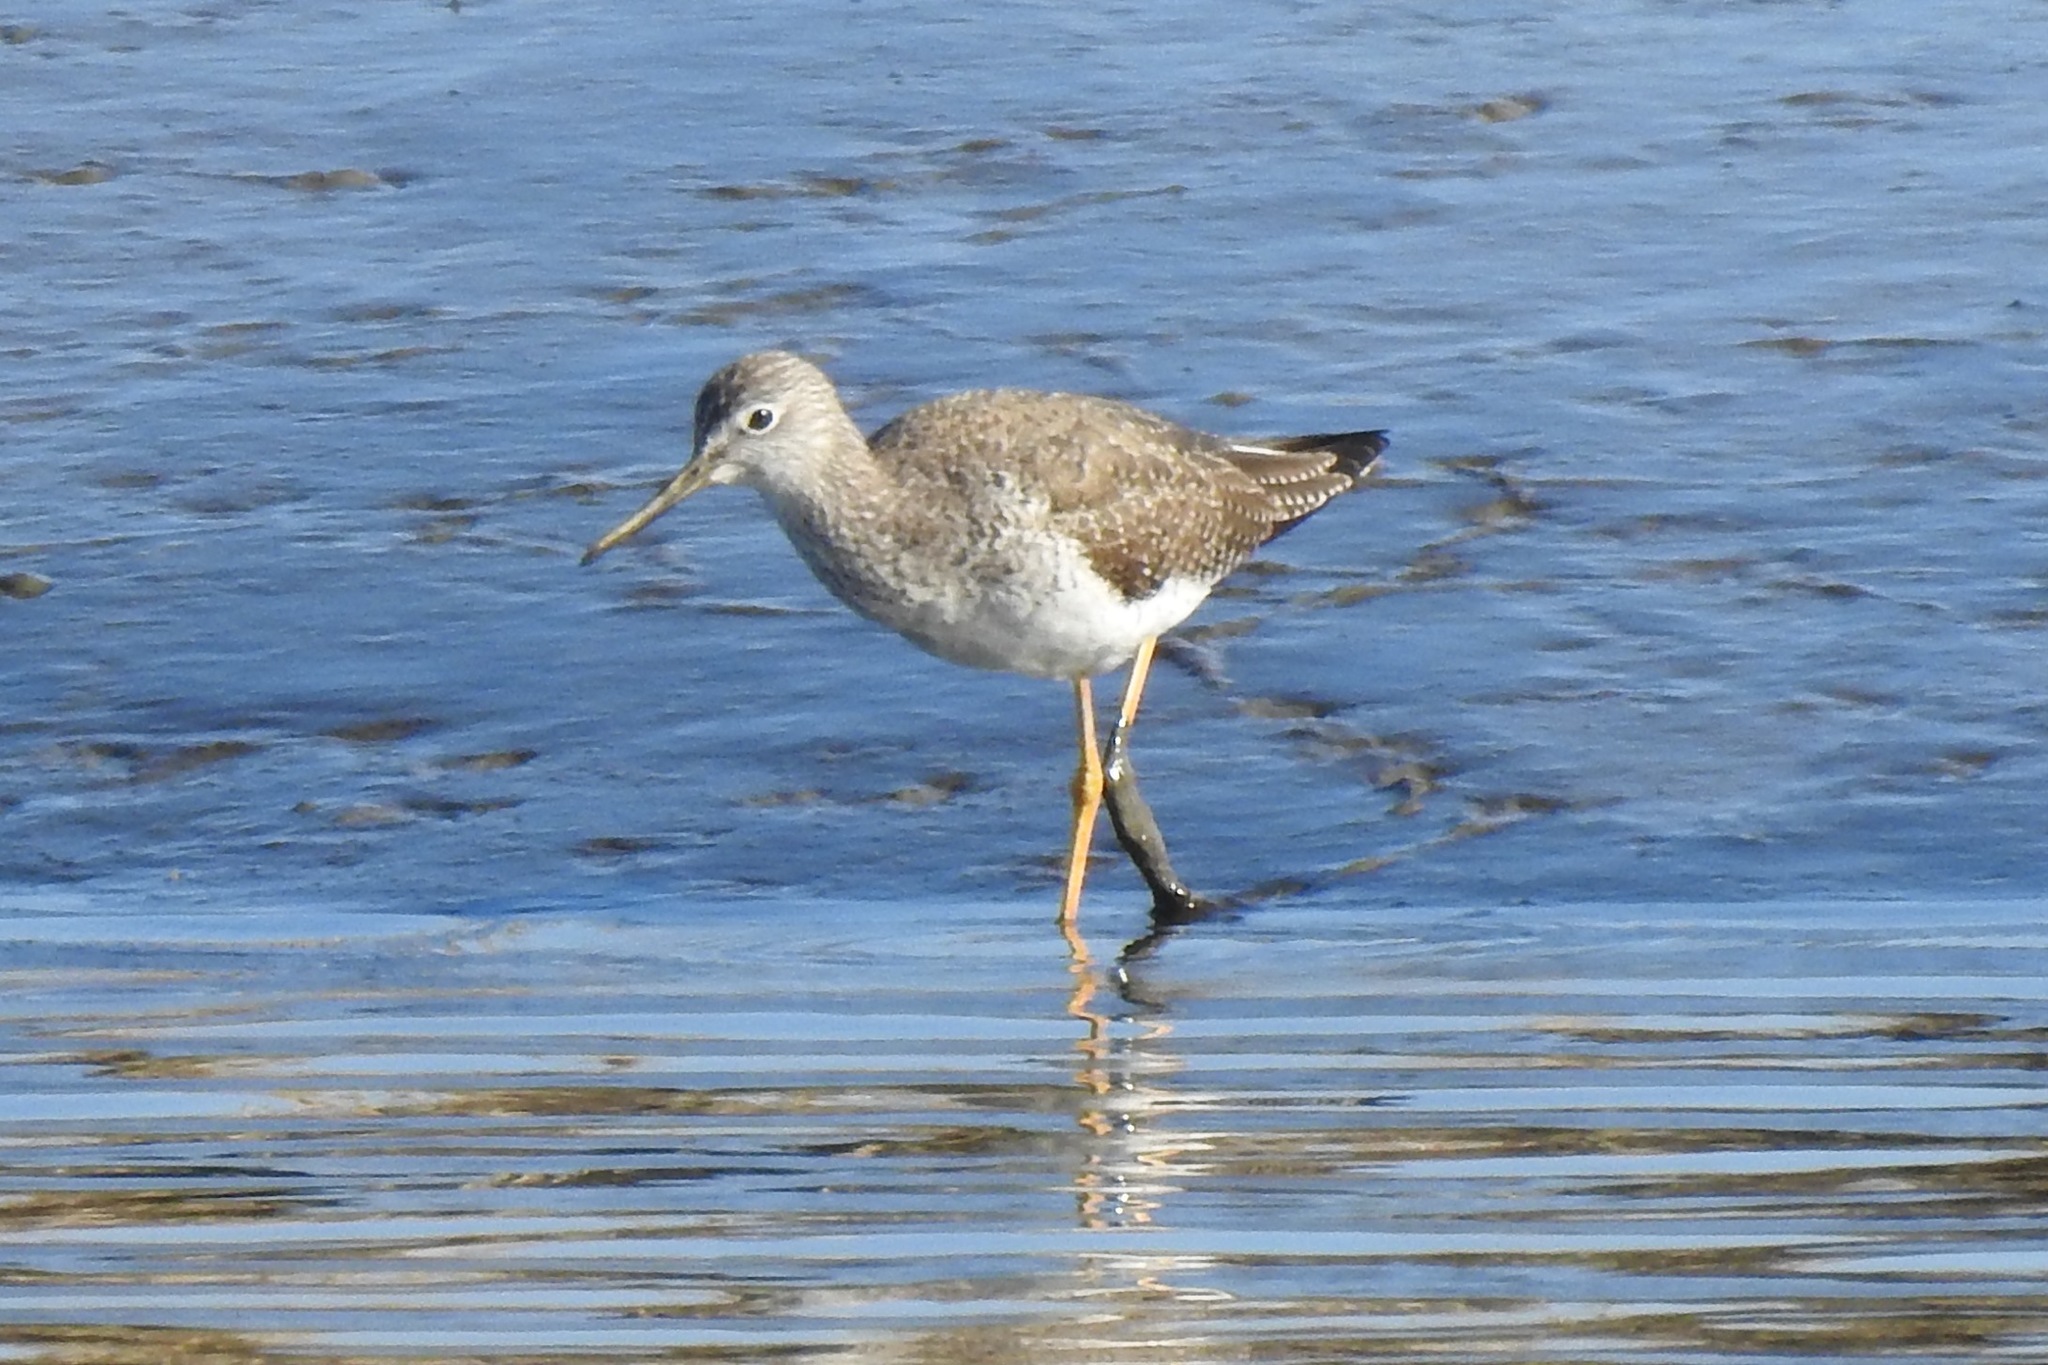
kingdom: Animalia
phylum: Chordata
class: Aves
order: Charadriiformes
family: Scolopacidae
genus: Tringa
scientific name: Tringa melanoleuca
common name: Greater yellowlegs
